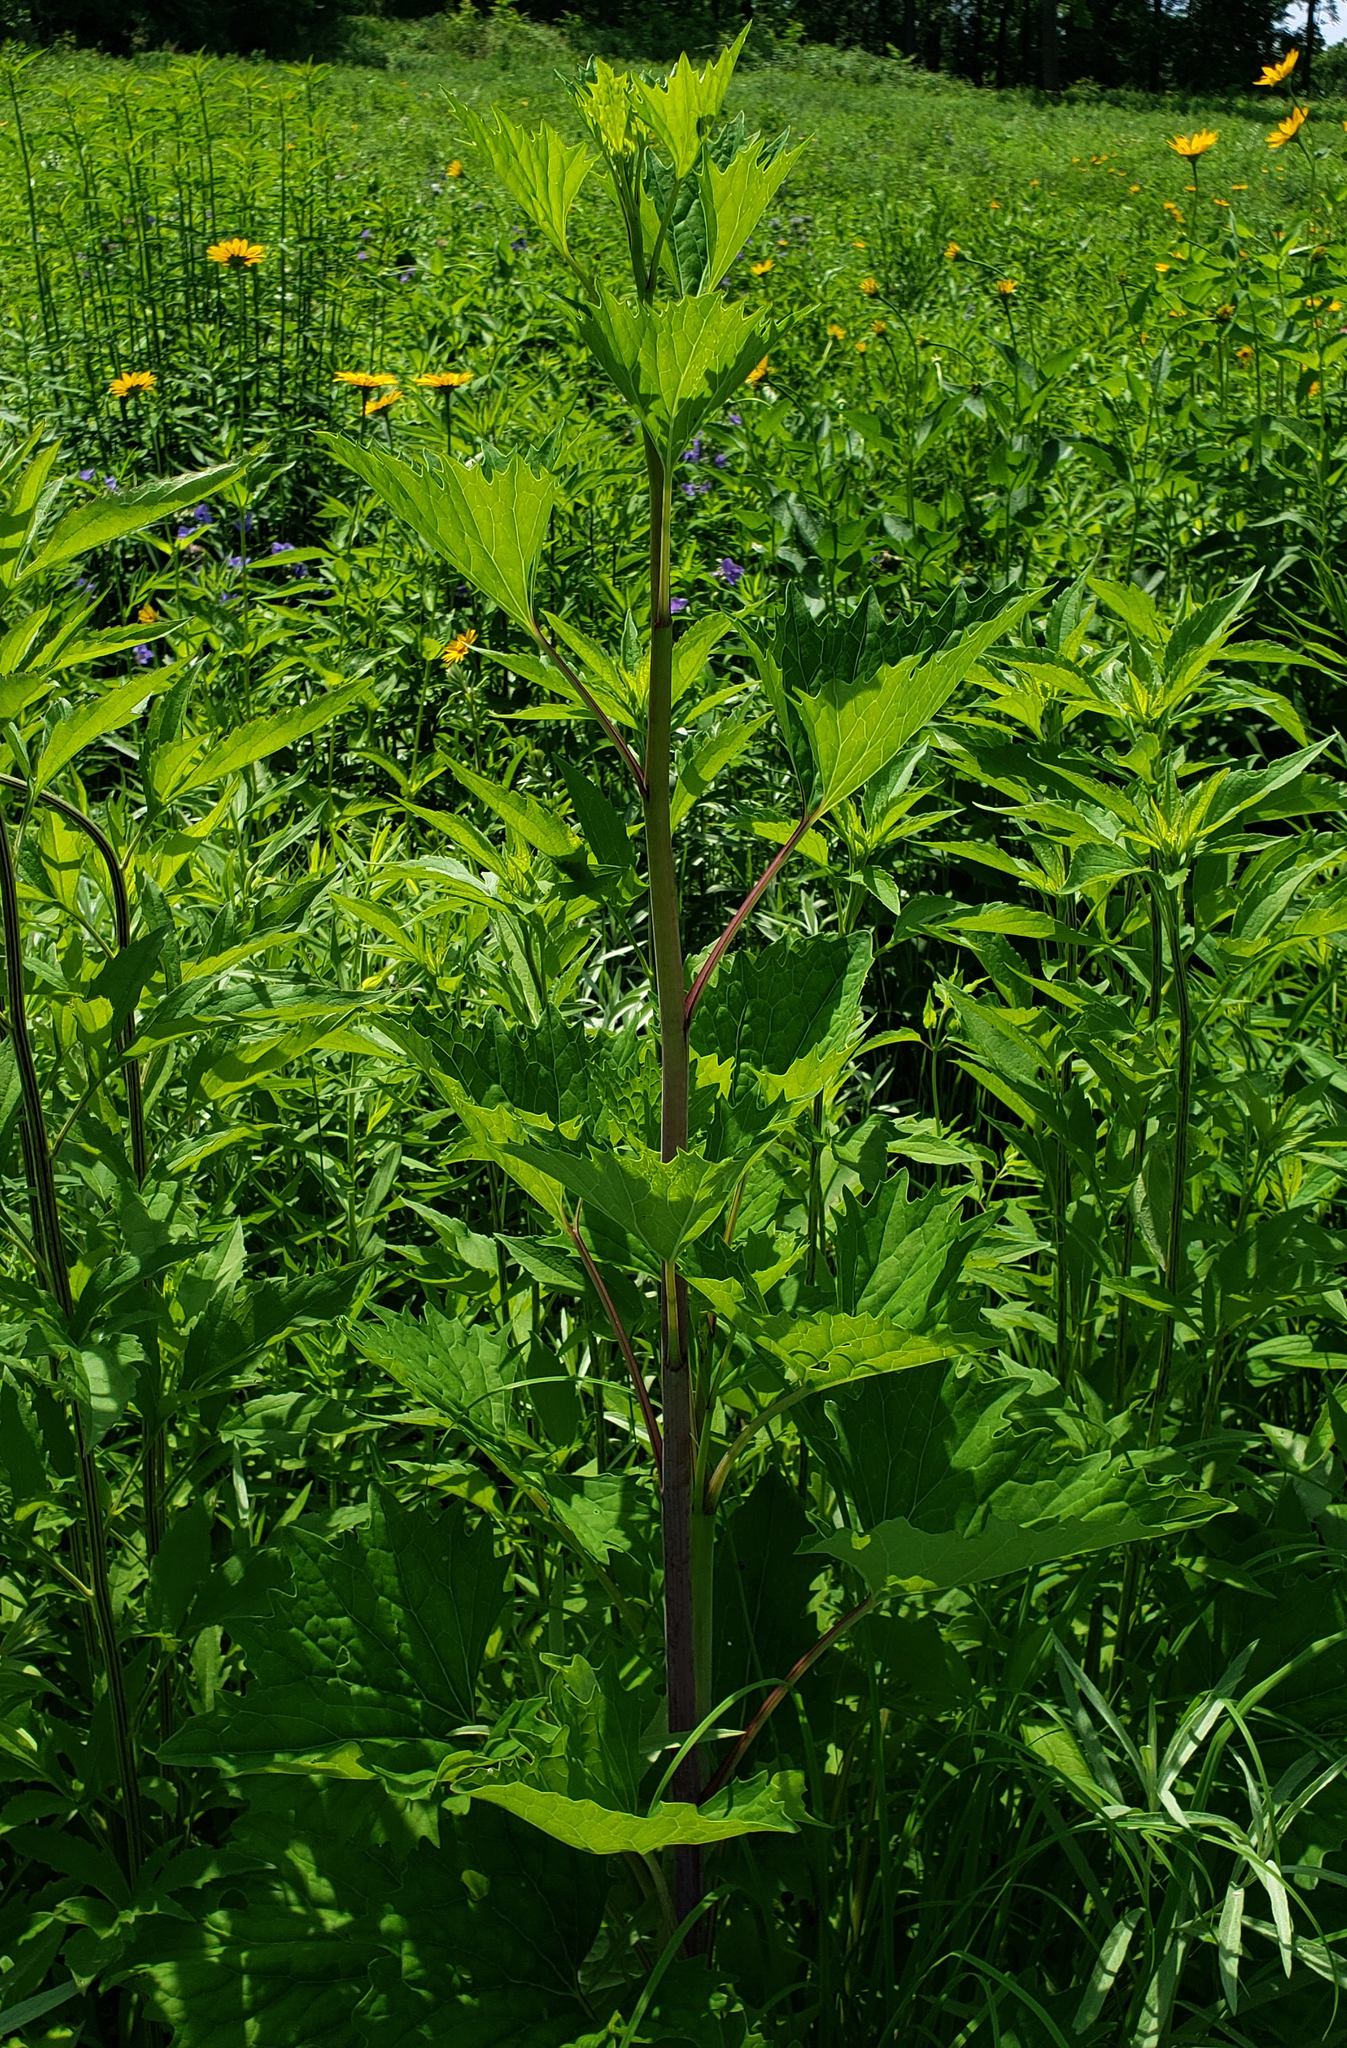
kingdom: Plantae
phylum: Tracheophyta
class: Magnoliopsida
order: Asterales
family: Asteraceae
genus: Arnoglossum
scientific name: Arnoglossum atriplicifolium
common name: Pale indian-plantain
